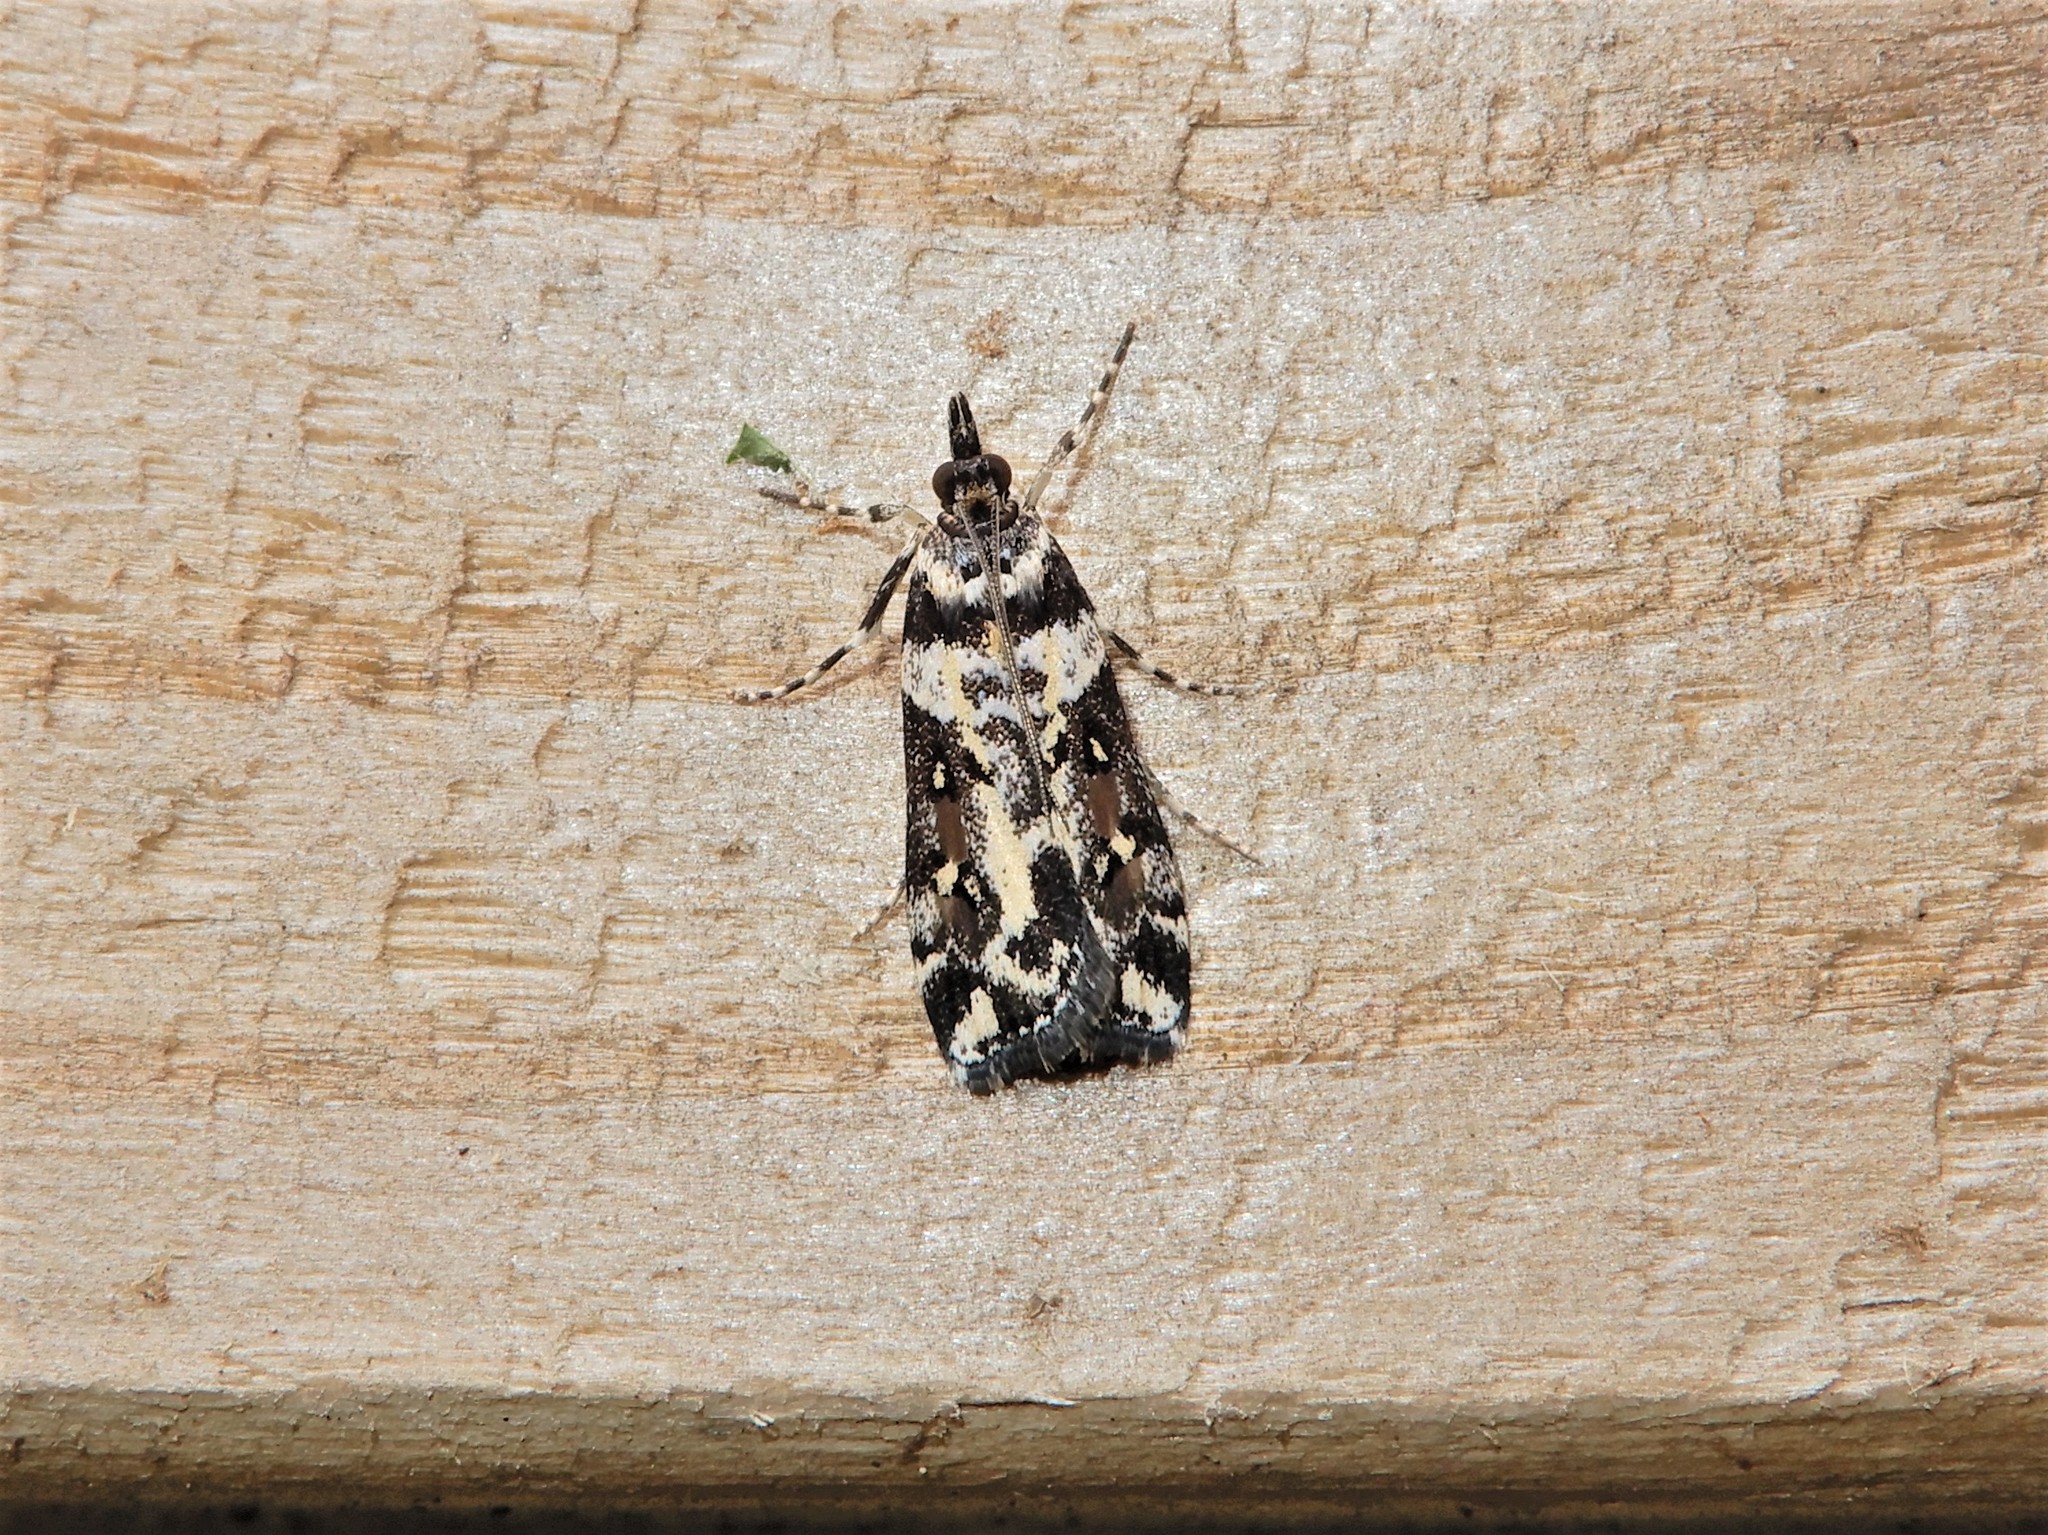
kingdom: Animalia
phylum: Arthropoda
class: Insecta
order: Lepidoptera
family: Crambidae
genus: Eudonia
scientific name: Eudonia diphtheralis
